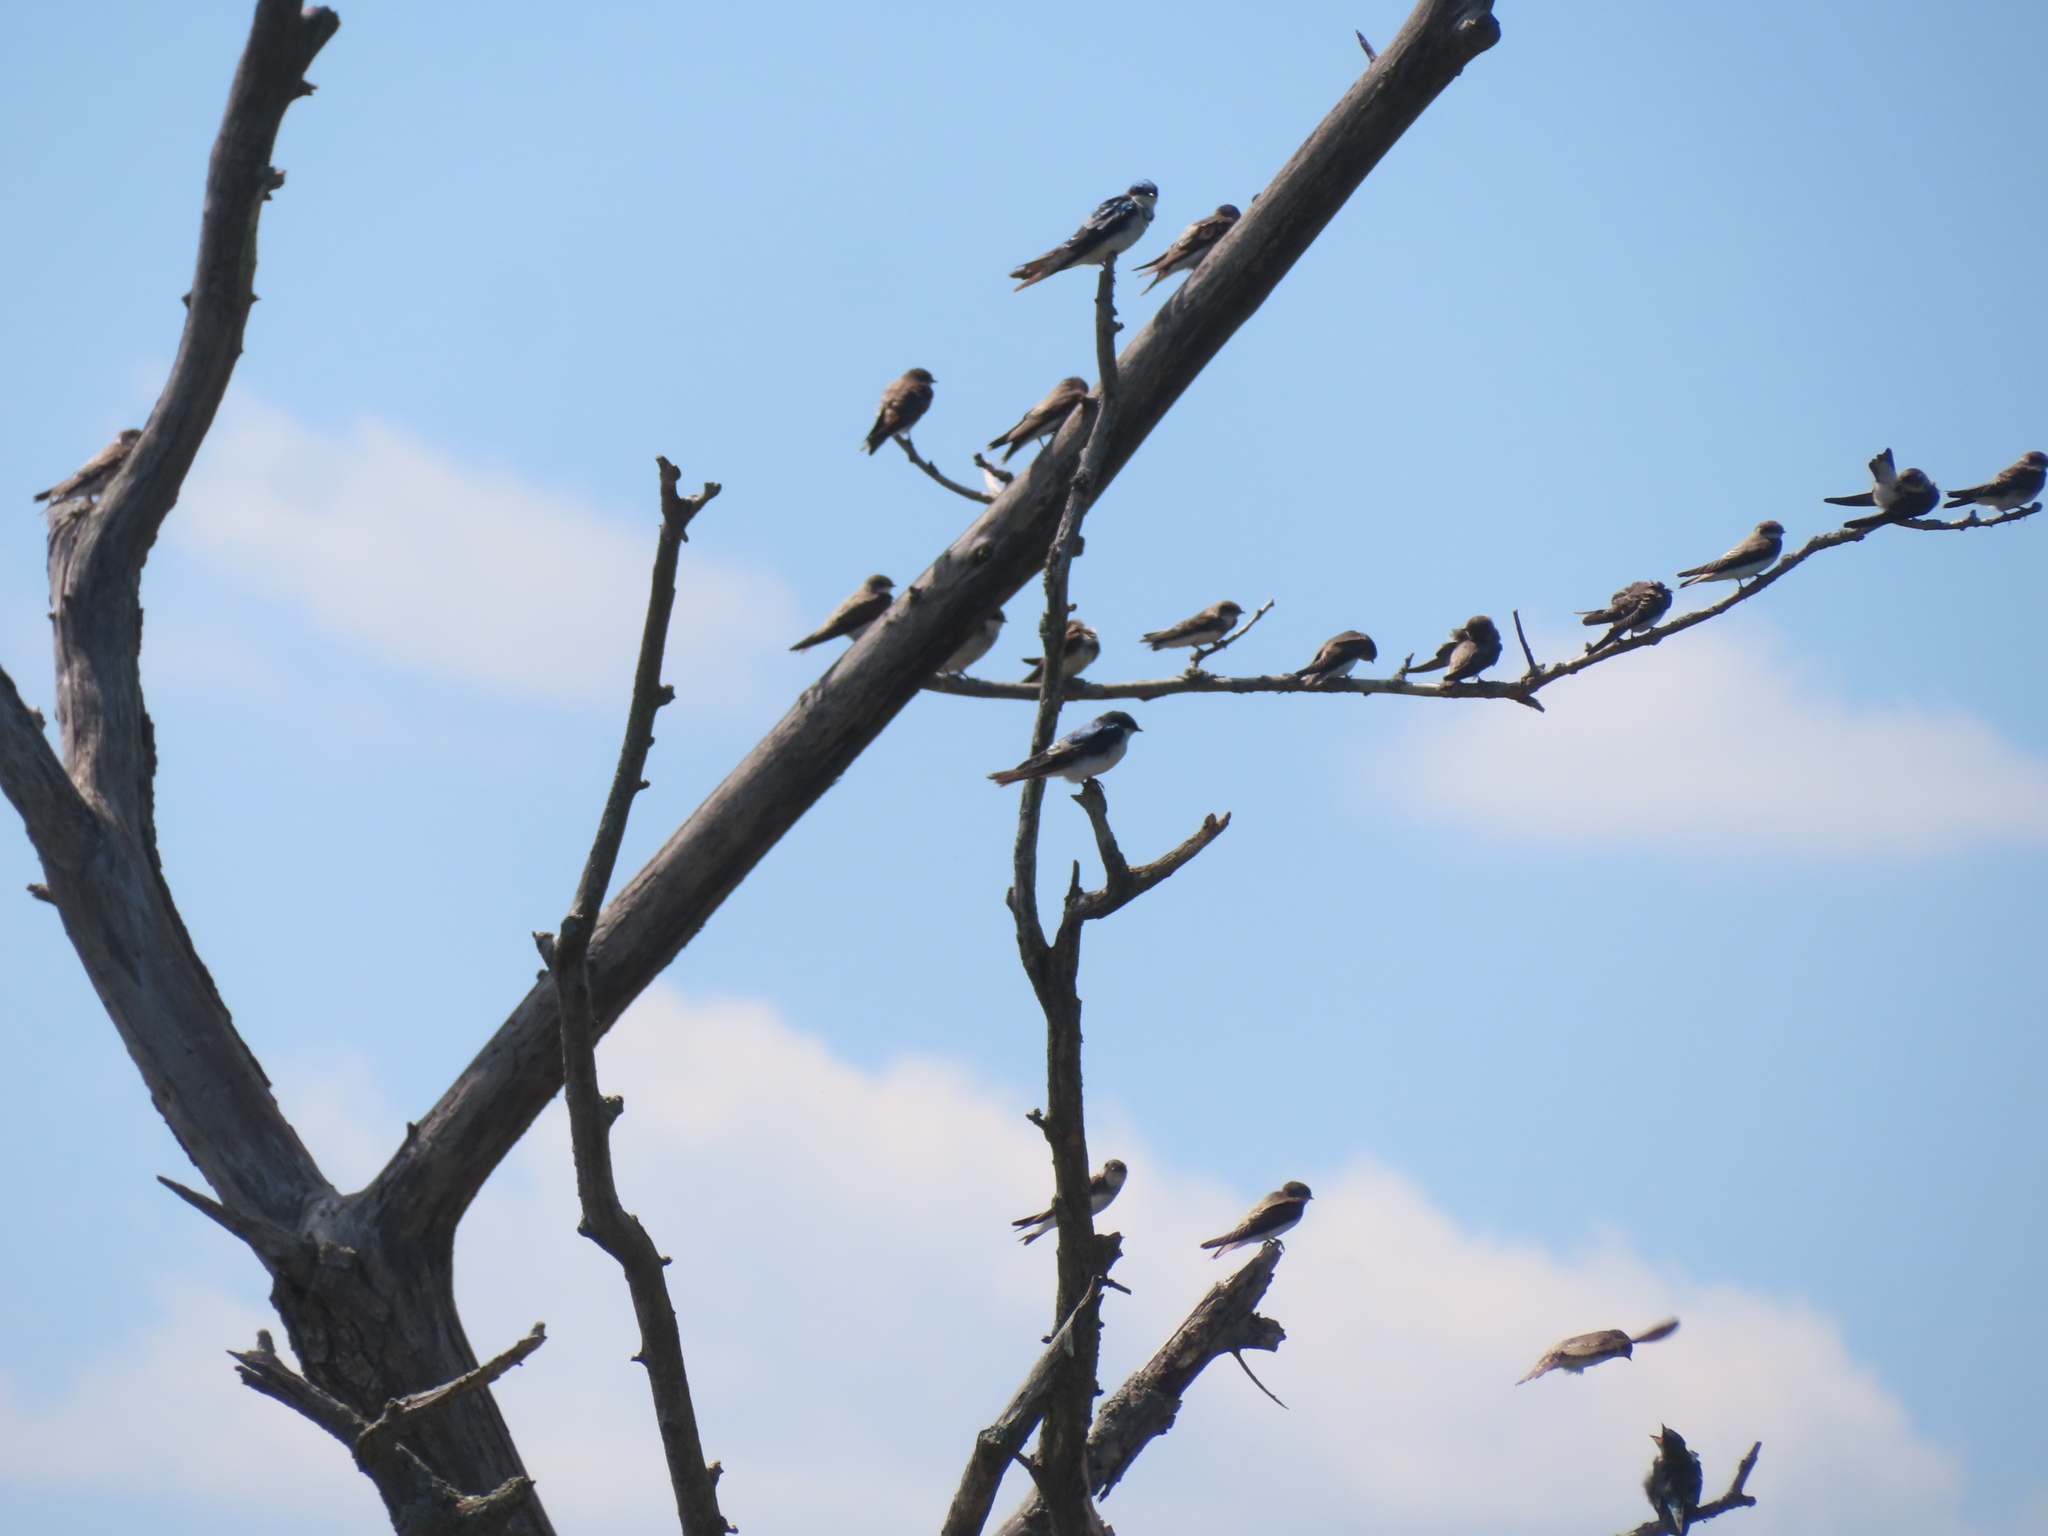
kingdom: Animalia
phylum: Chordata
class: Aves
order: Passeriformes
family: Hirundinidae
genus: Riparia
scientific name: Riparia riparia
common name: Sand martin
